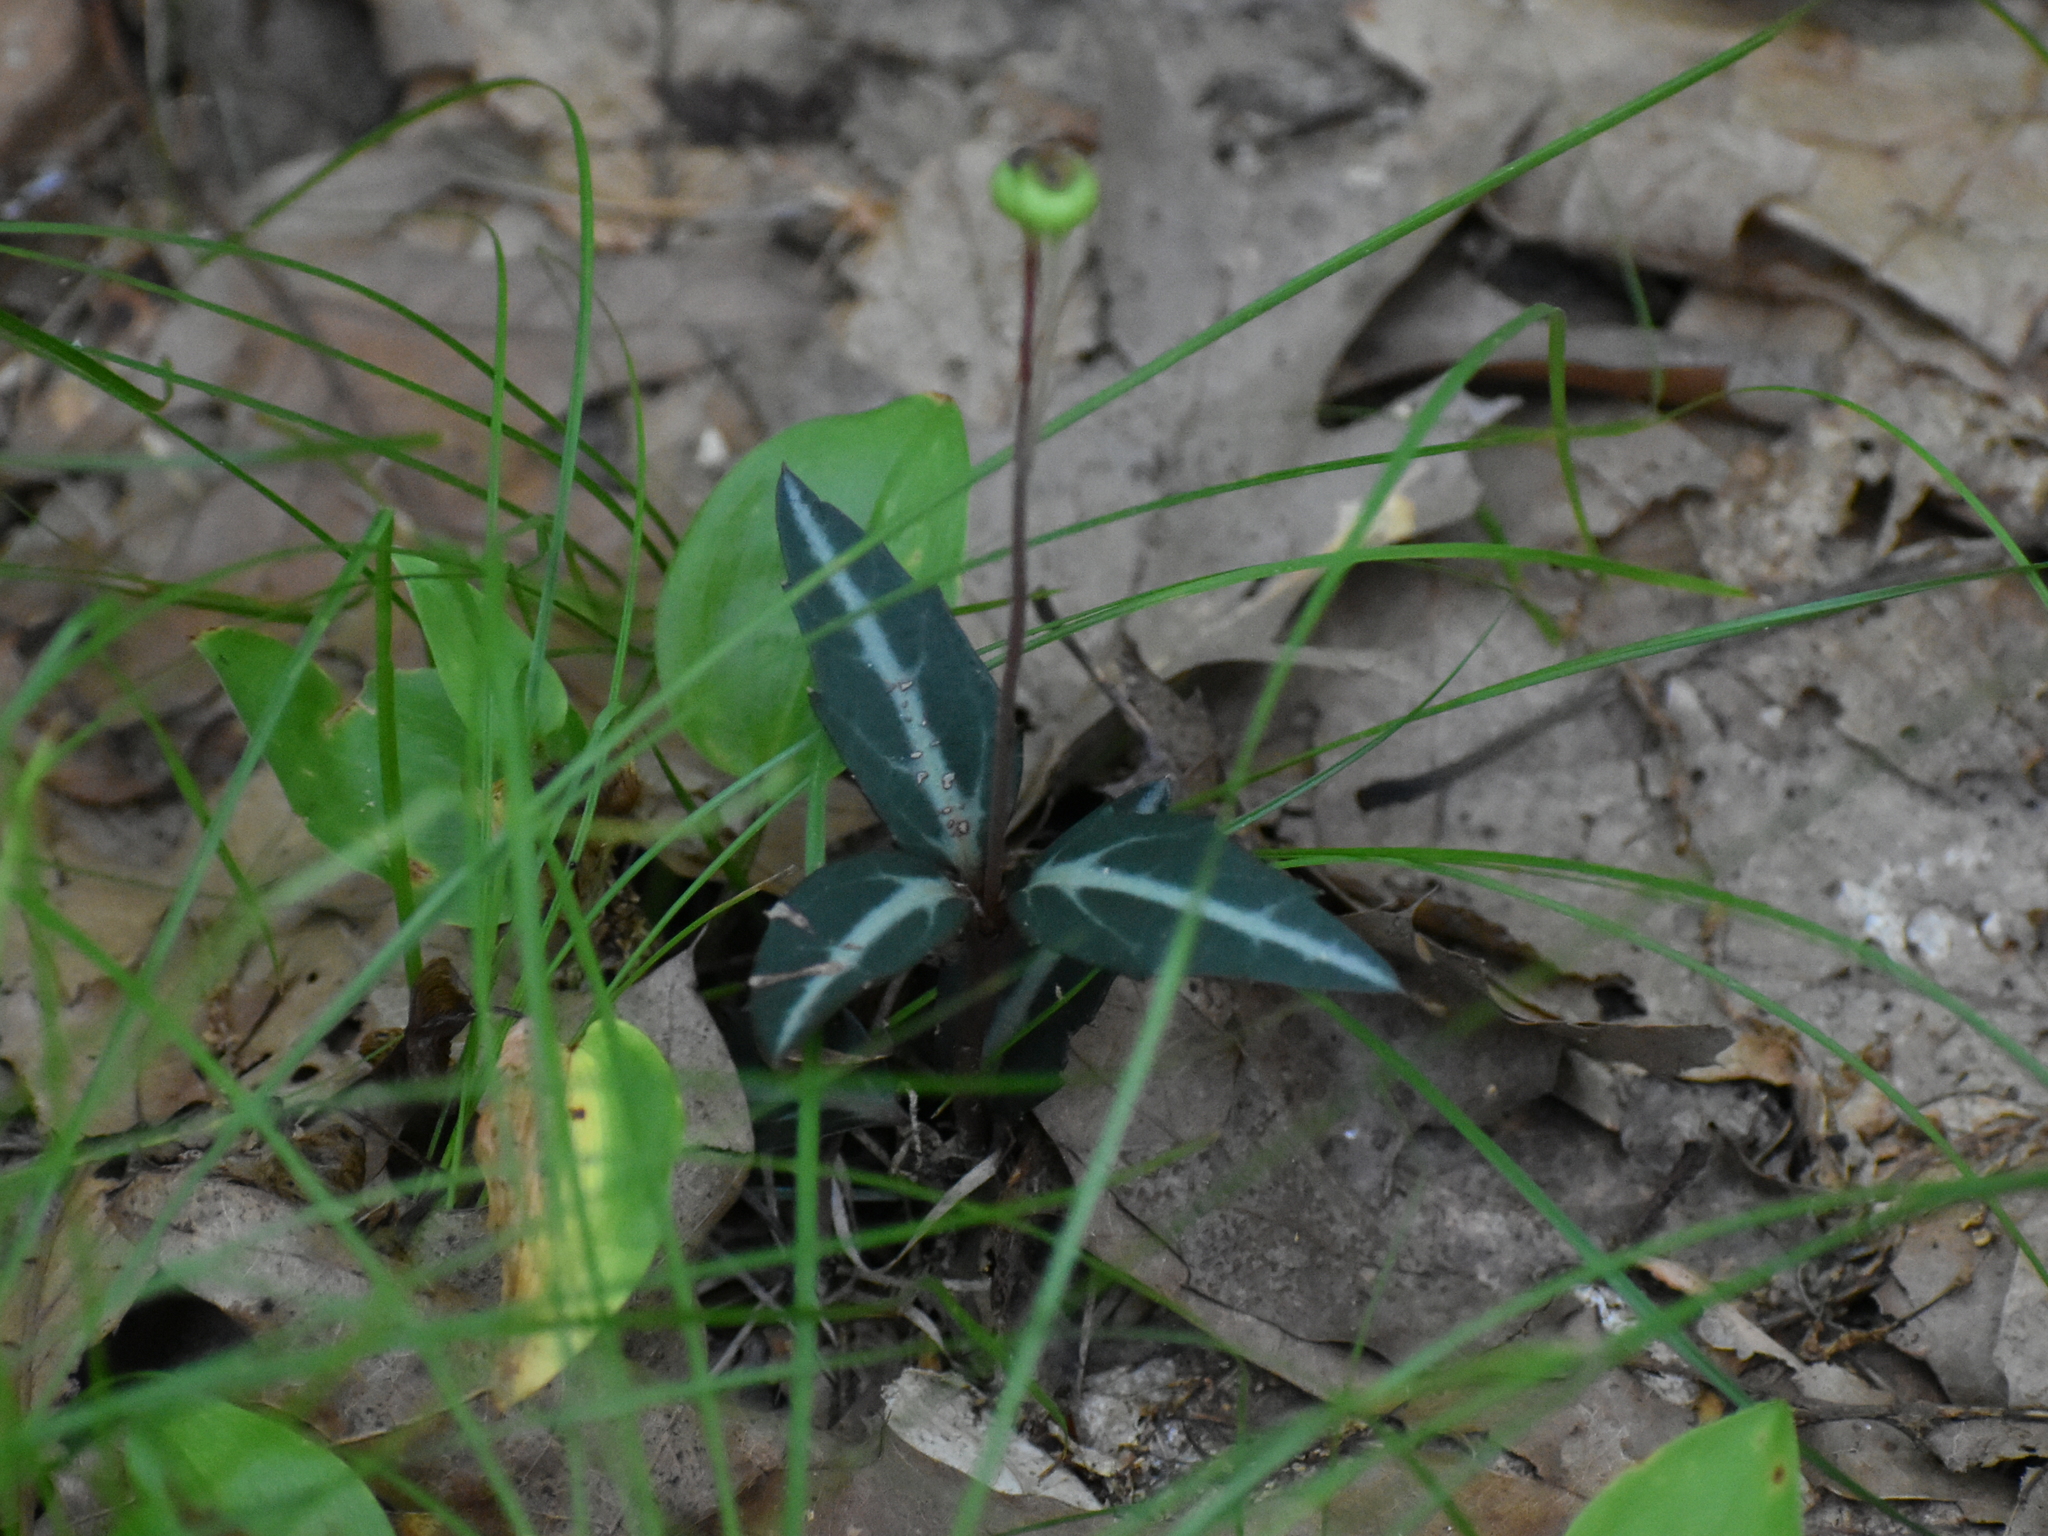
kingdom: Plantae
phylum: Tracheophyta
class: Magnoliopsida
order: Ericales
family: Ericaceae
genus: Chimaphila
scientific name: Chimaphila maculata
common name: Spotted pipsissewa
